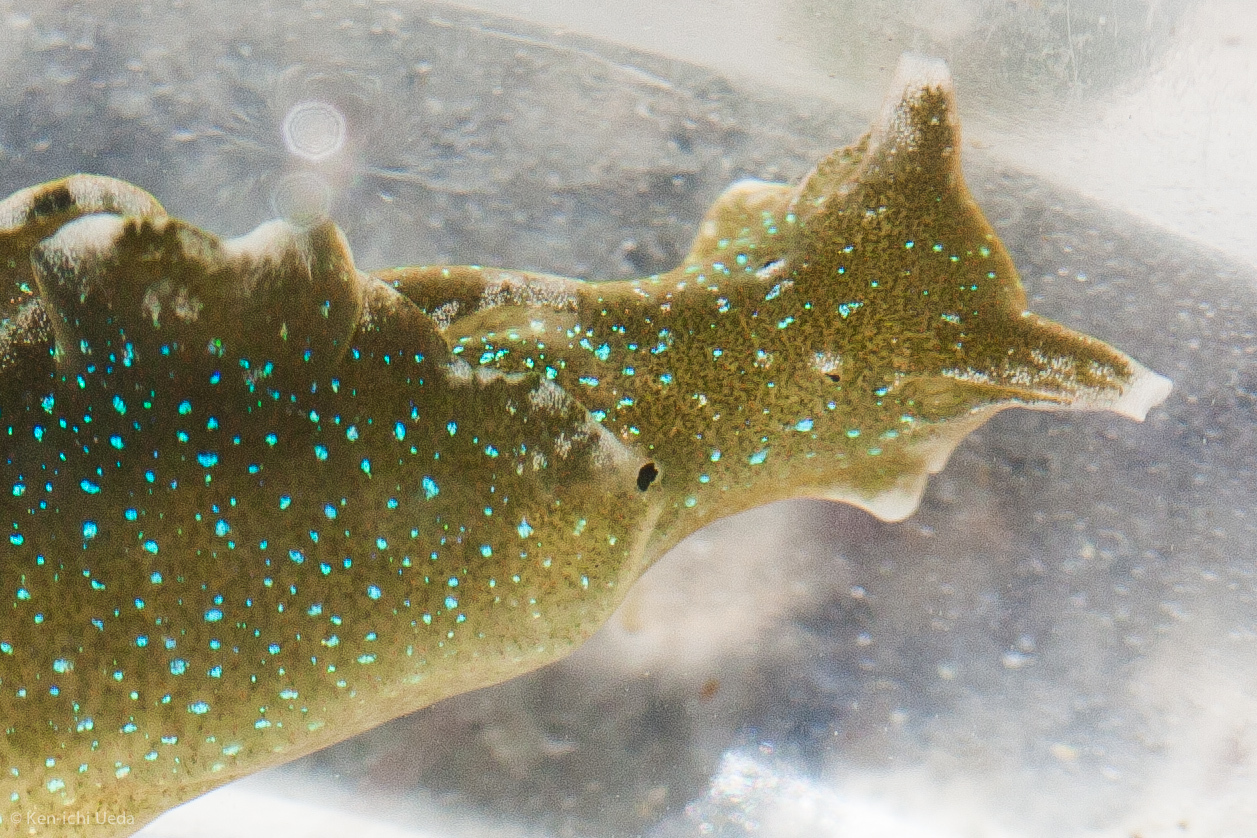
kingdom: Animalia
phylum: Mollusca
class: Gastropoda
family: Plakobranchidae
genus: Elysia
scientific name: Elysia hedgpethi
